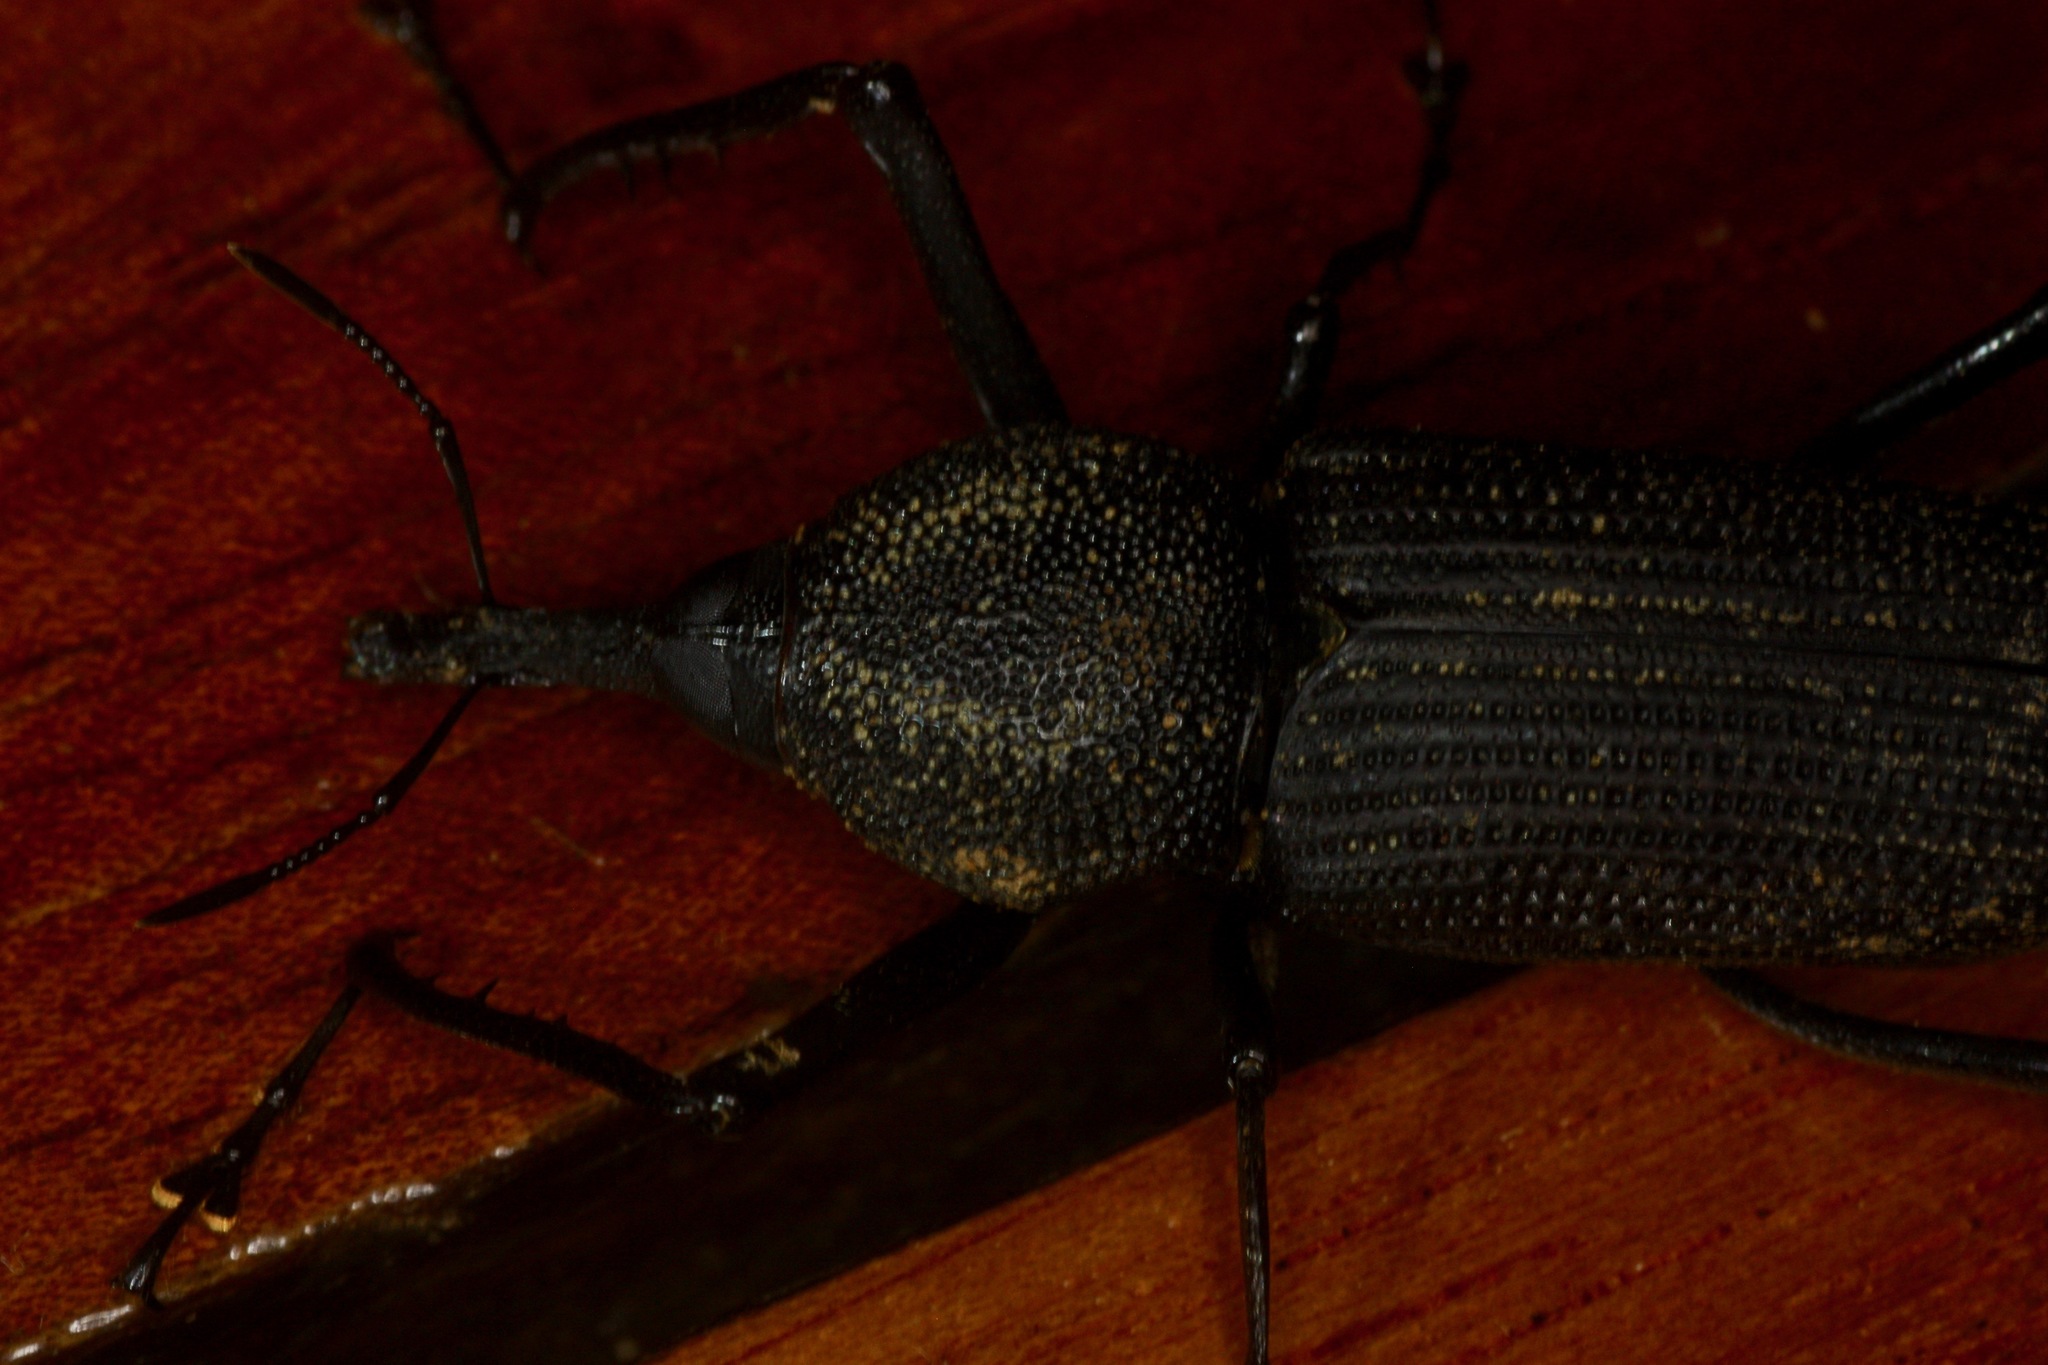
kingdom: Animalia
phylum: Arthropoda
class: Insecta
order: Coleoptera
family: Dryophthoridae
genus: Rhinostomus
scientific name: Rhinostomus barbirostris
